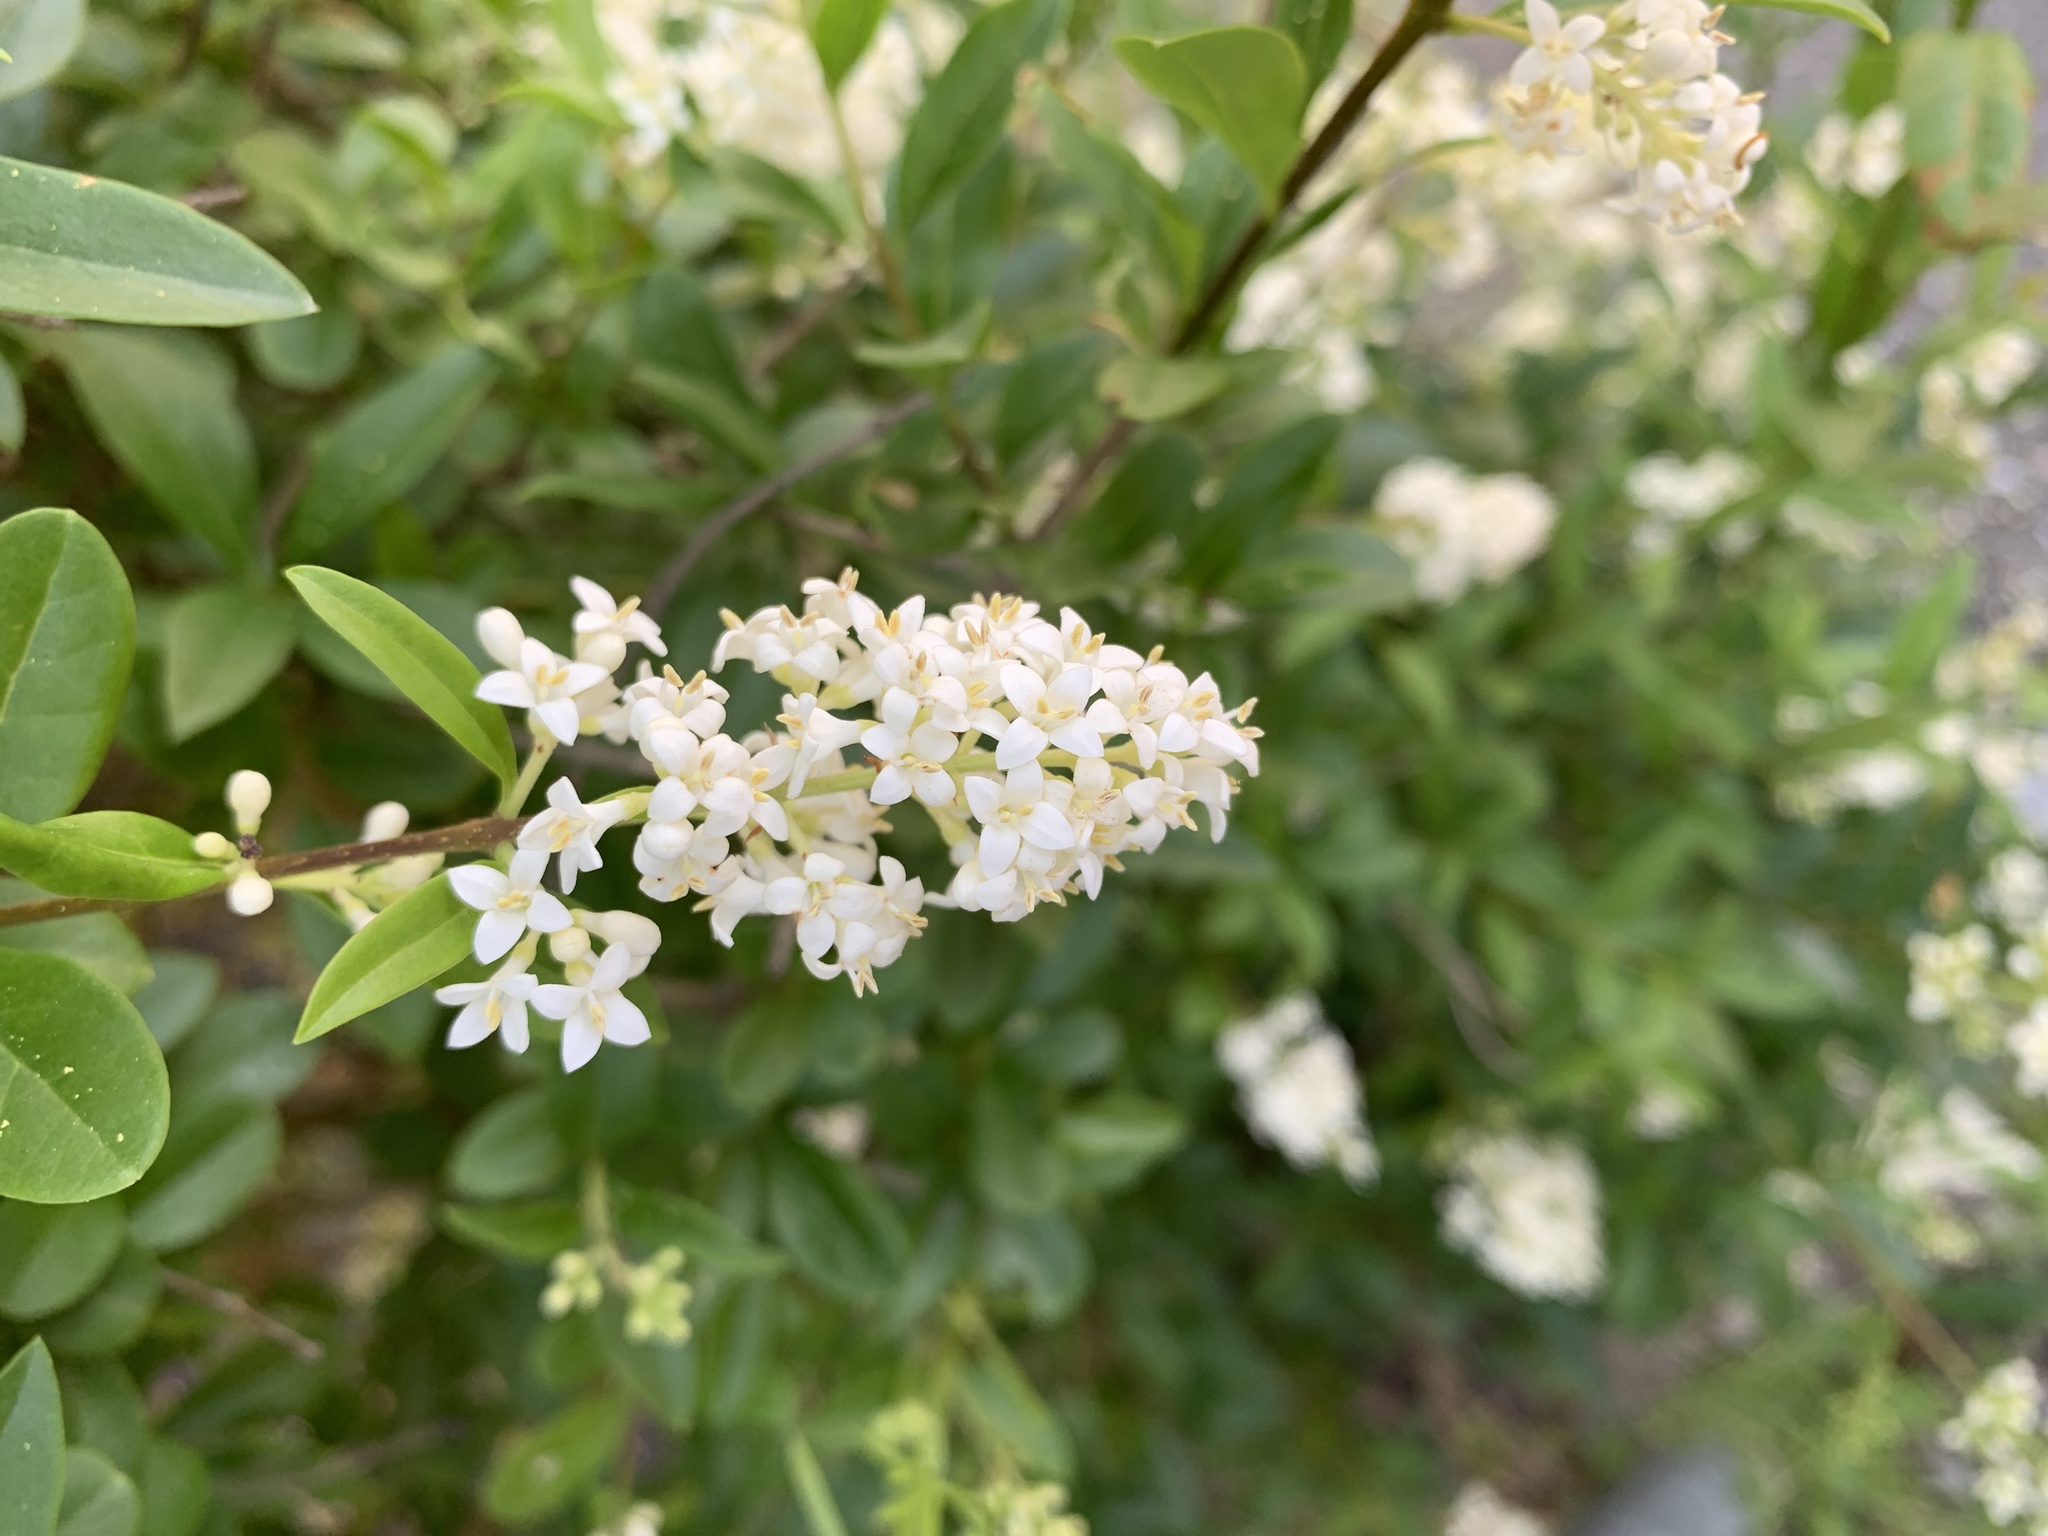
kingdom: Plantae
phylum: Tracheophyta
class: Magnoliopsida
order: Lamiales
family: Oleaceae
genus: Ligustrum
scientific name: Ligustrum vulgare
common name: Wild privet
